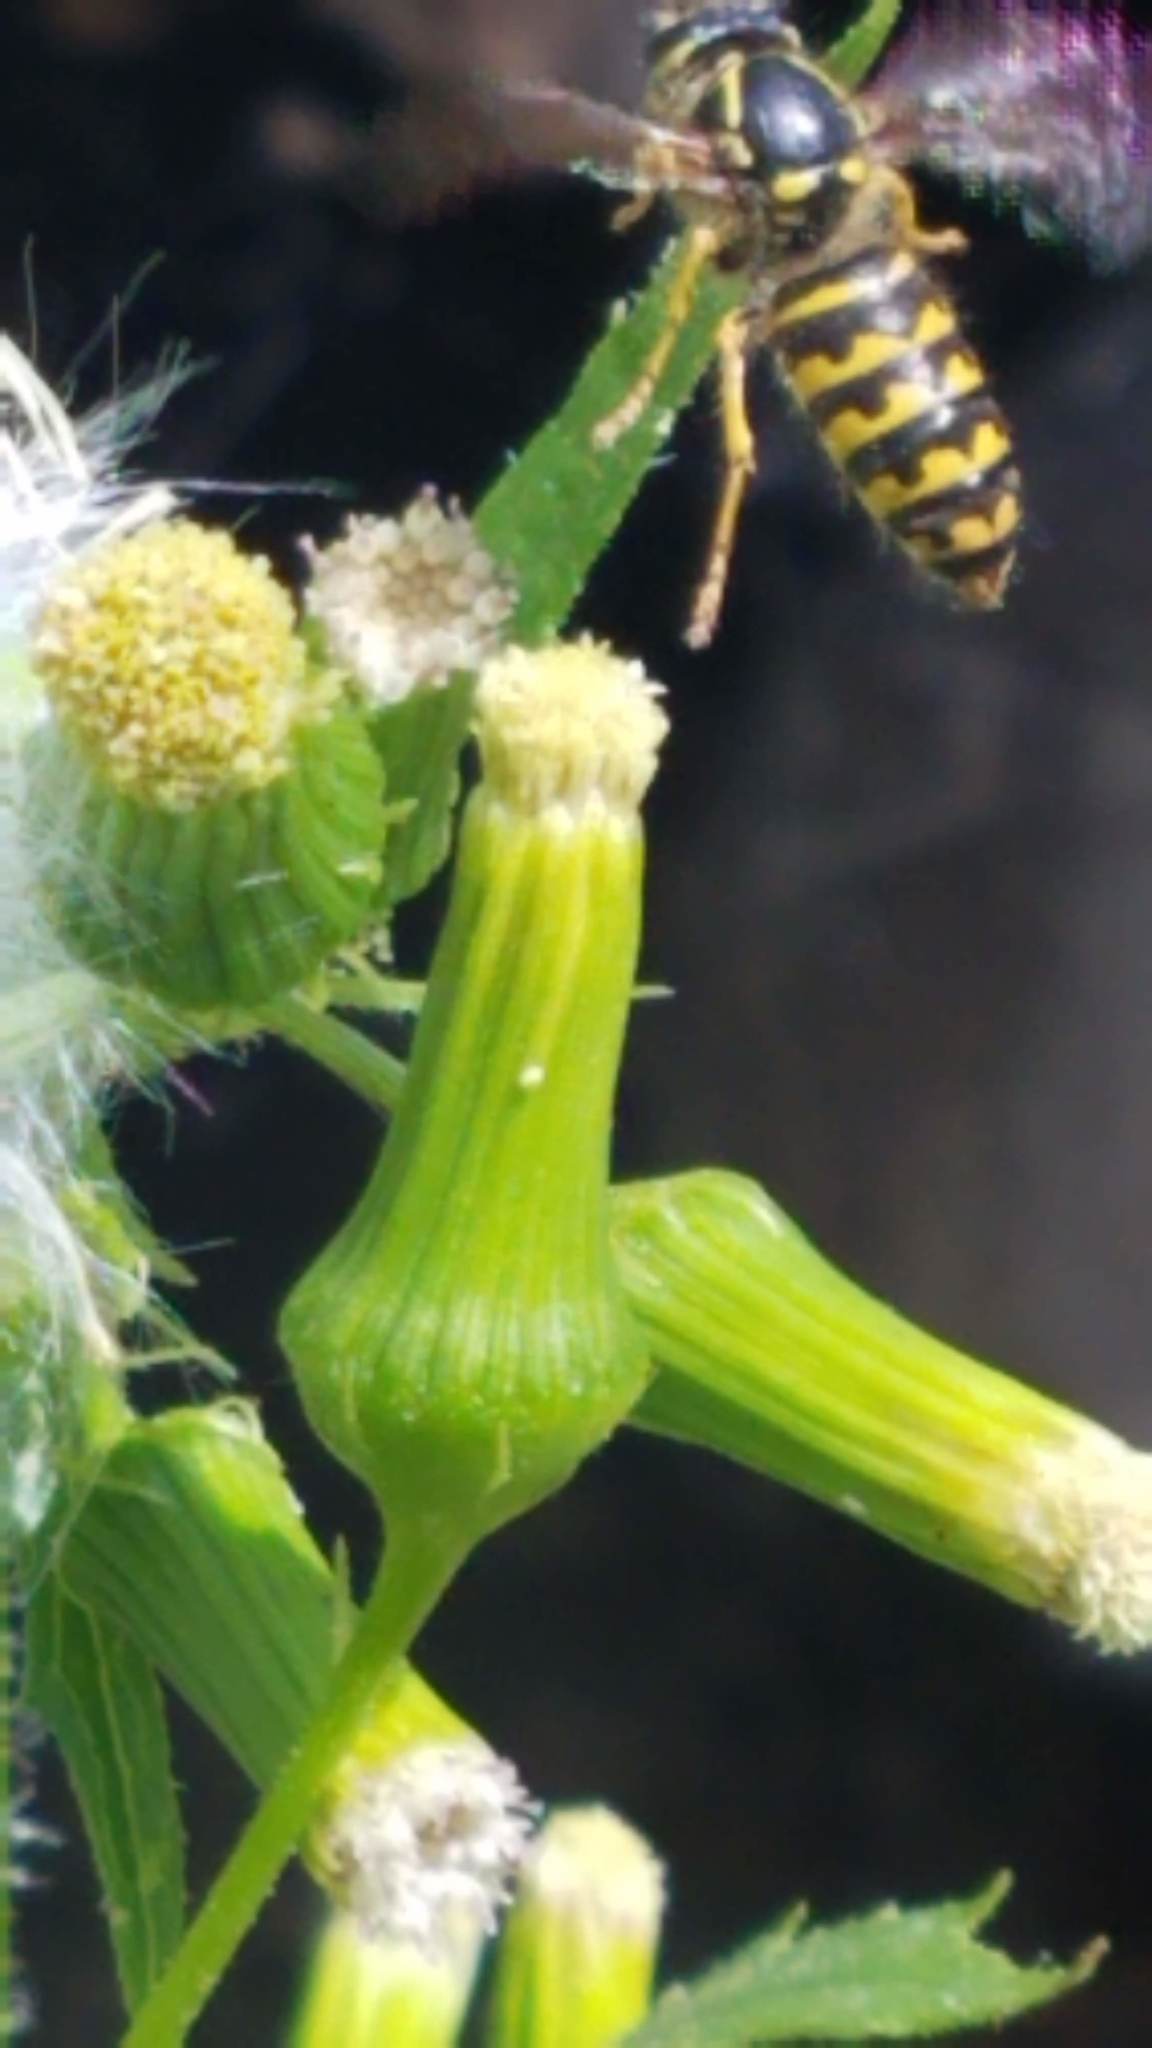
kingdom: Animalia
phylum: Arthropoda
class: Insecta
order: Hymenoptera
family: Vespidae
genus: Dolichovespula
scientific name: Dolichovespula arenaria
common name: Aerial yellowjacket
